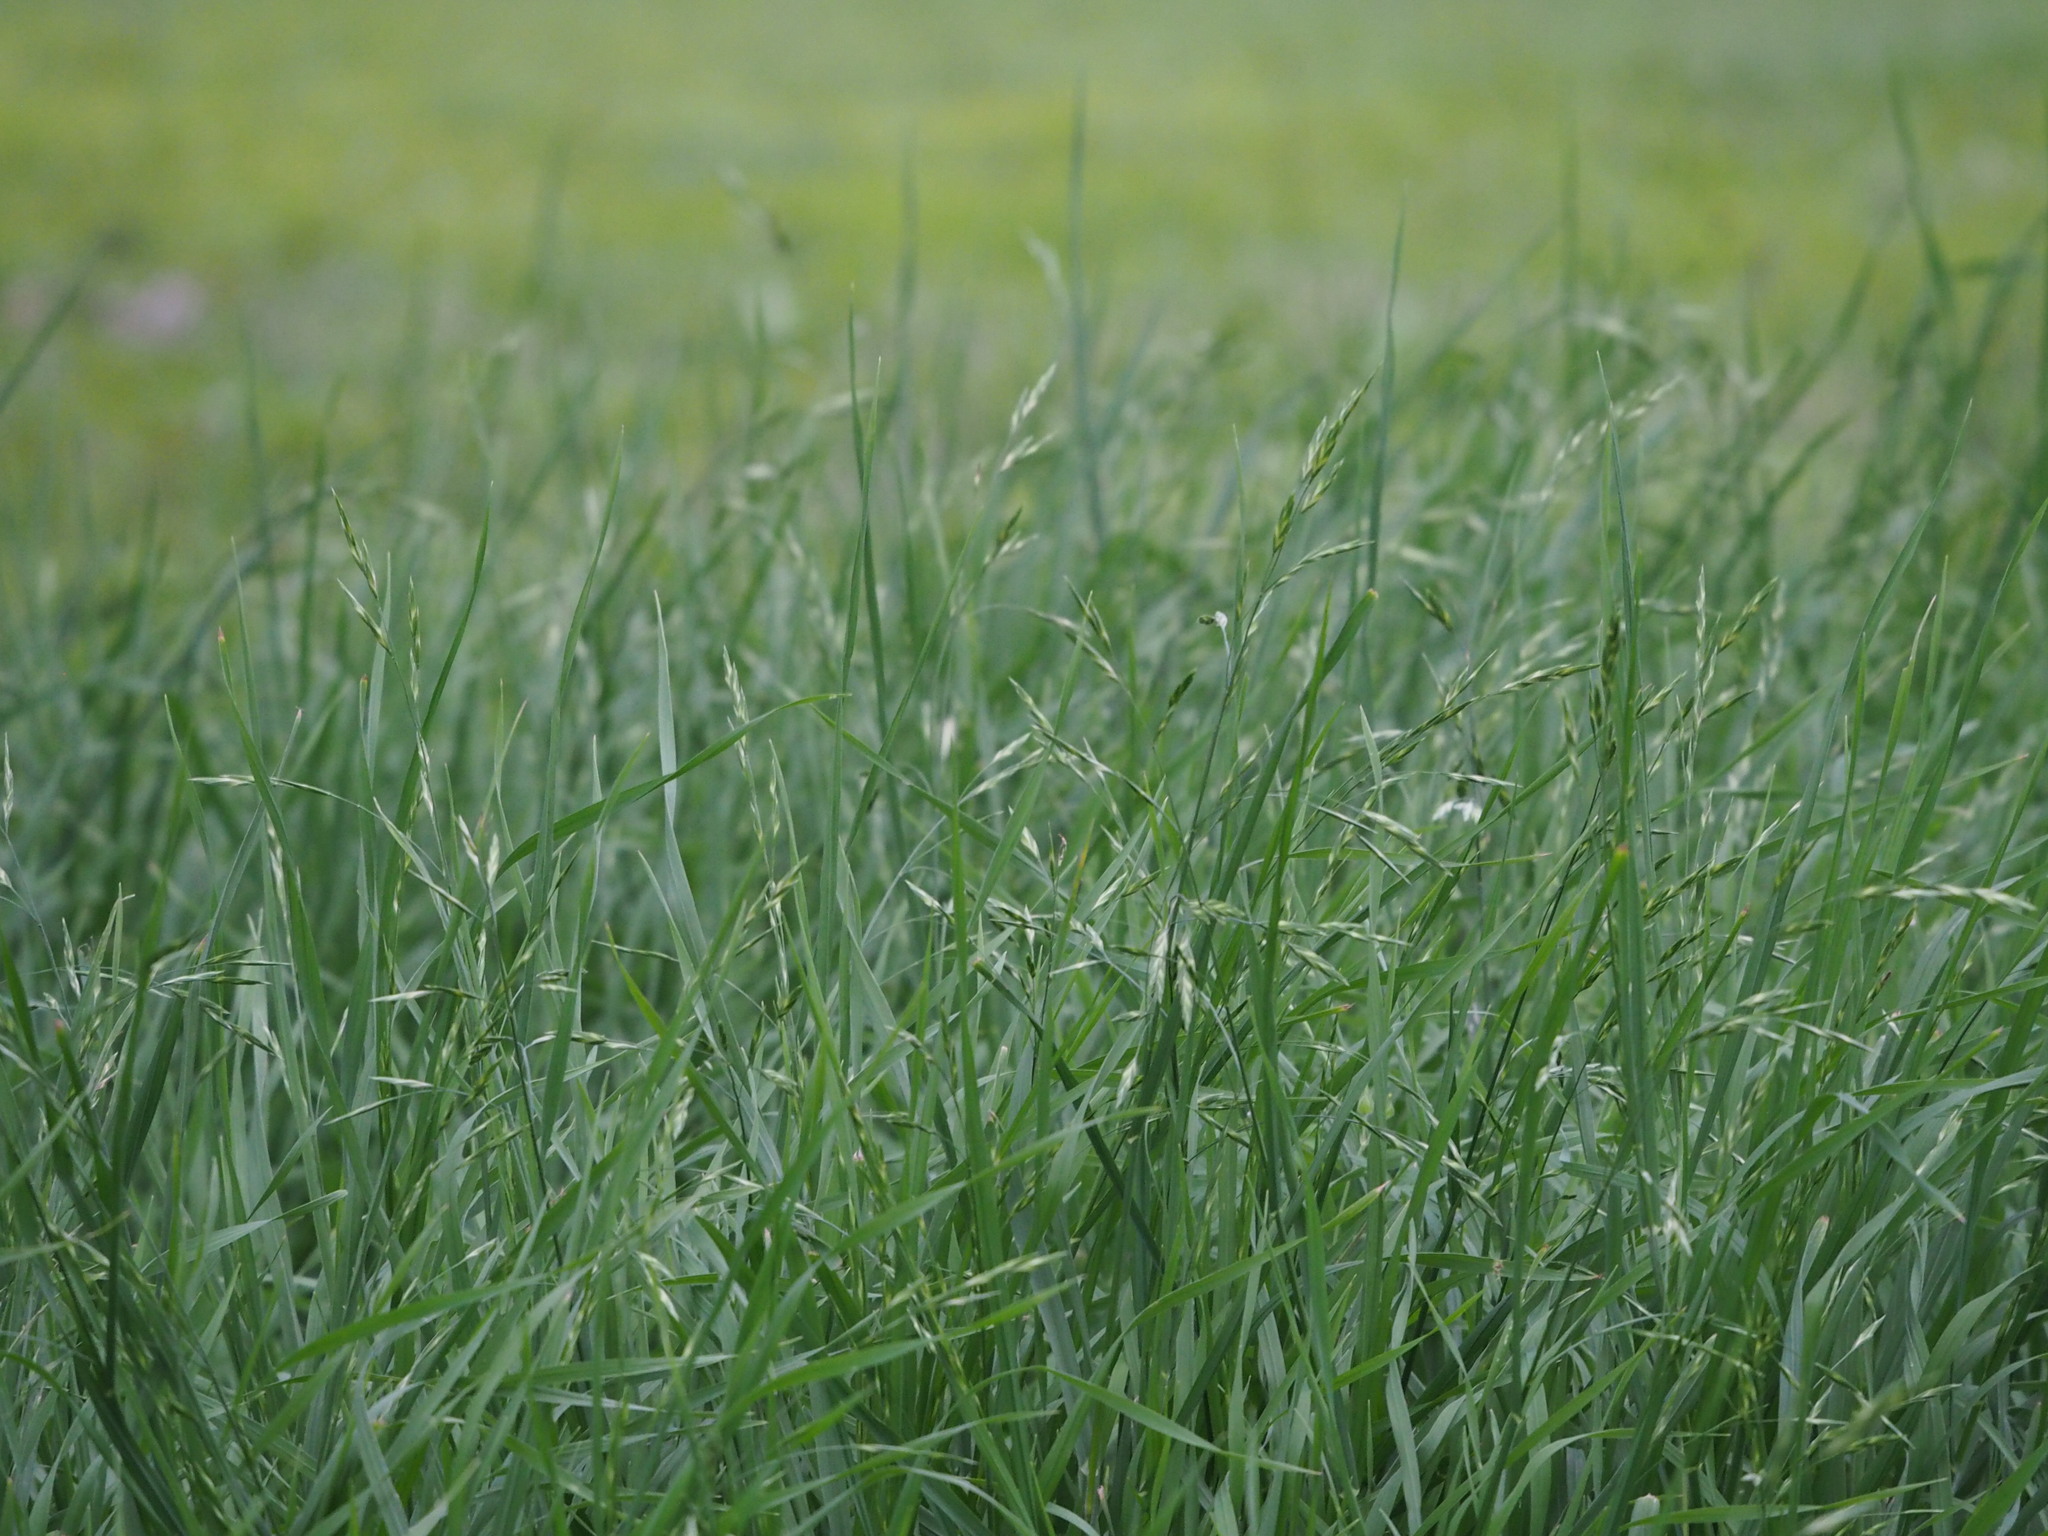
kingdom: Plantae
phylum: Tracheophyta
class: Liliopsida
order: Poales
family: Poaceae
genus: Bromus
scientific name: Bromus catharticus
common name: Rescuegrass
